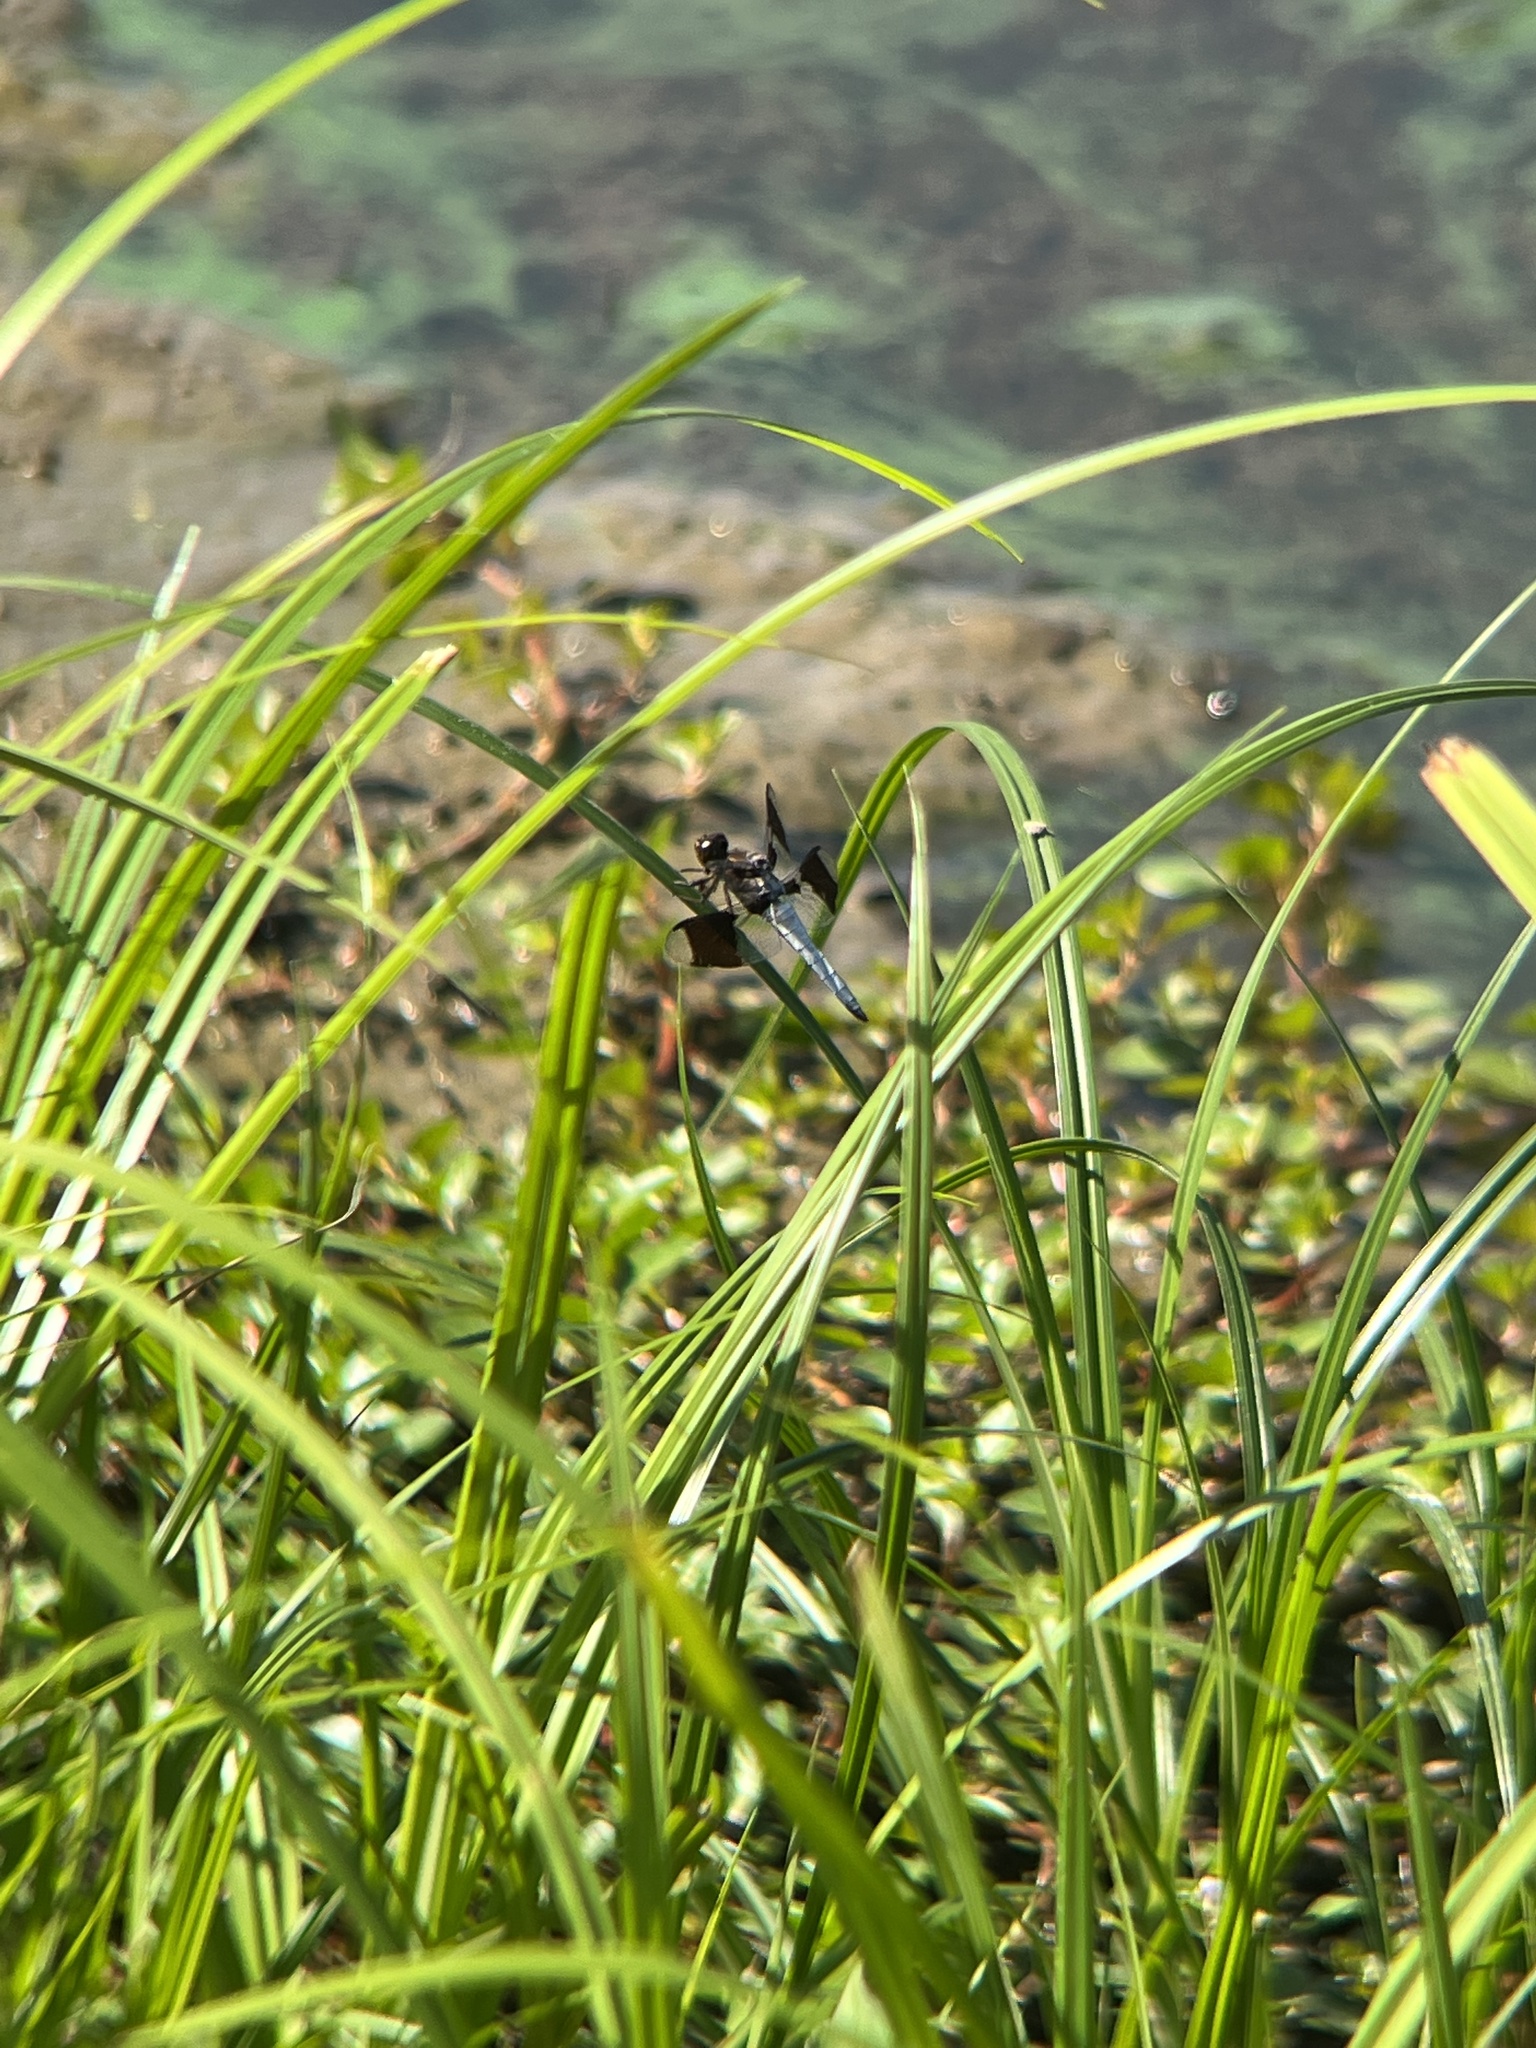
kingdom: Animalia
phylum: Arthropoda
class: Insecta
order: Odonata
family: Libellulidae
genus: Plathemis
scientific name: Plathemis lydia
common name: Common whitetail
